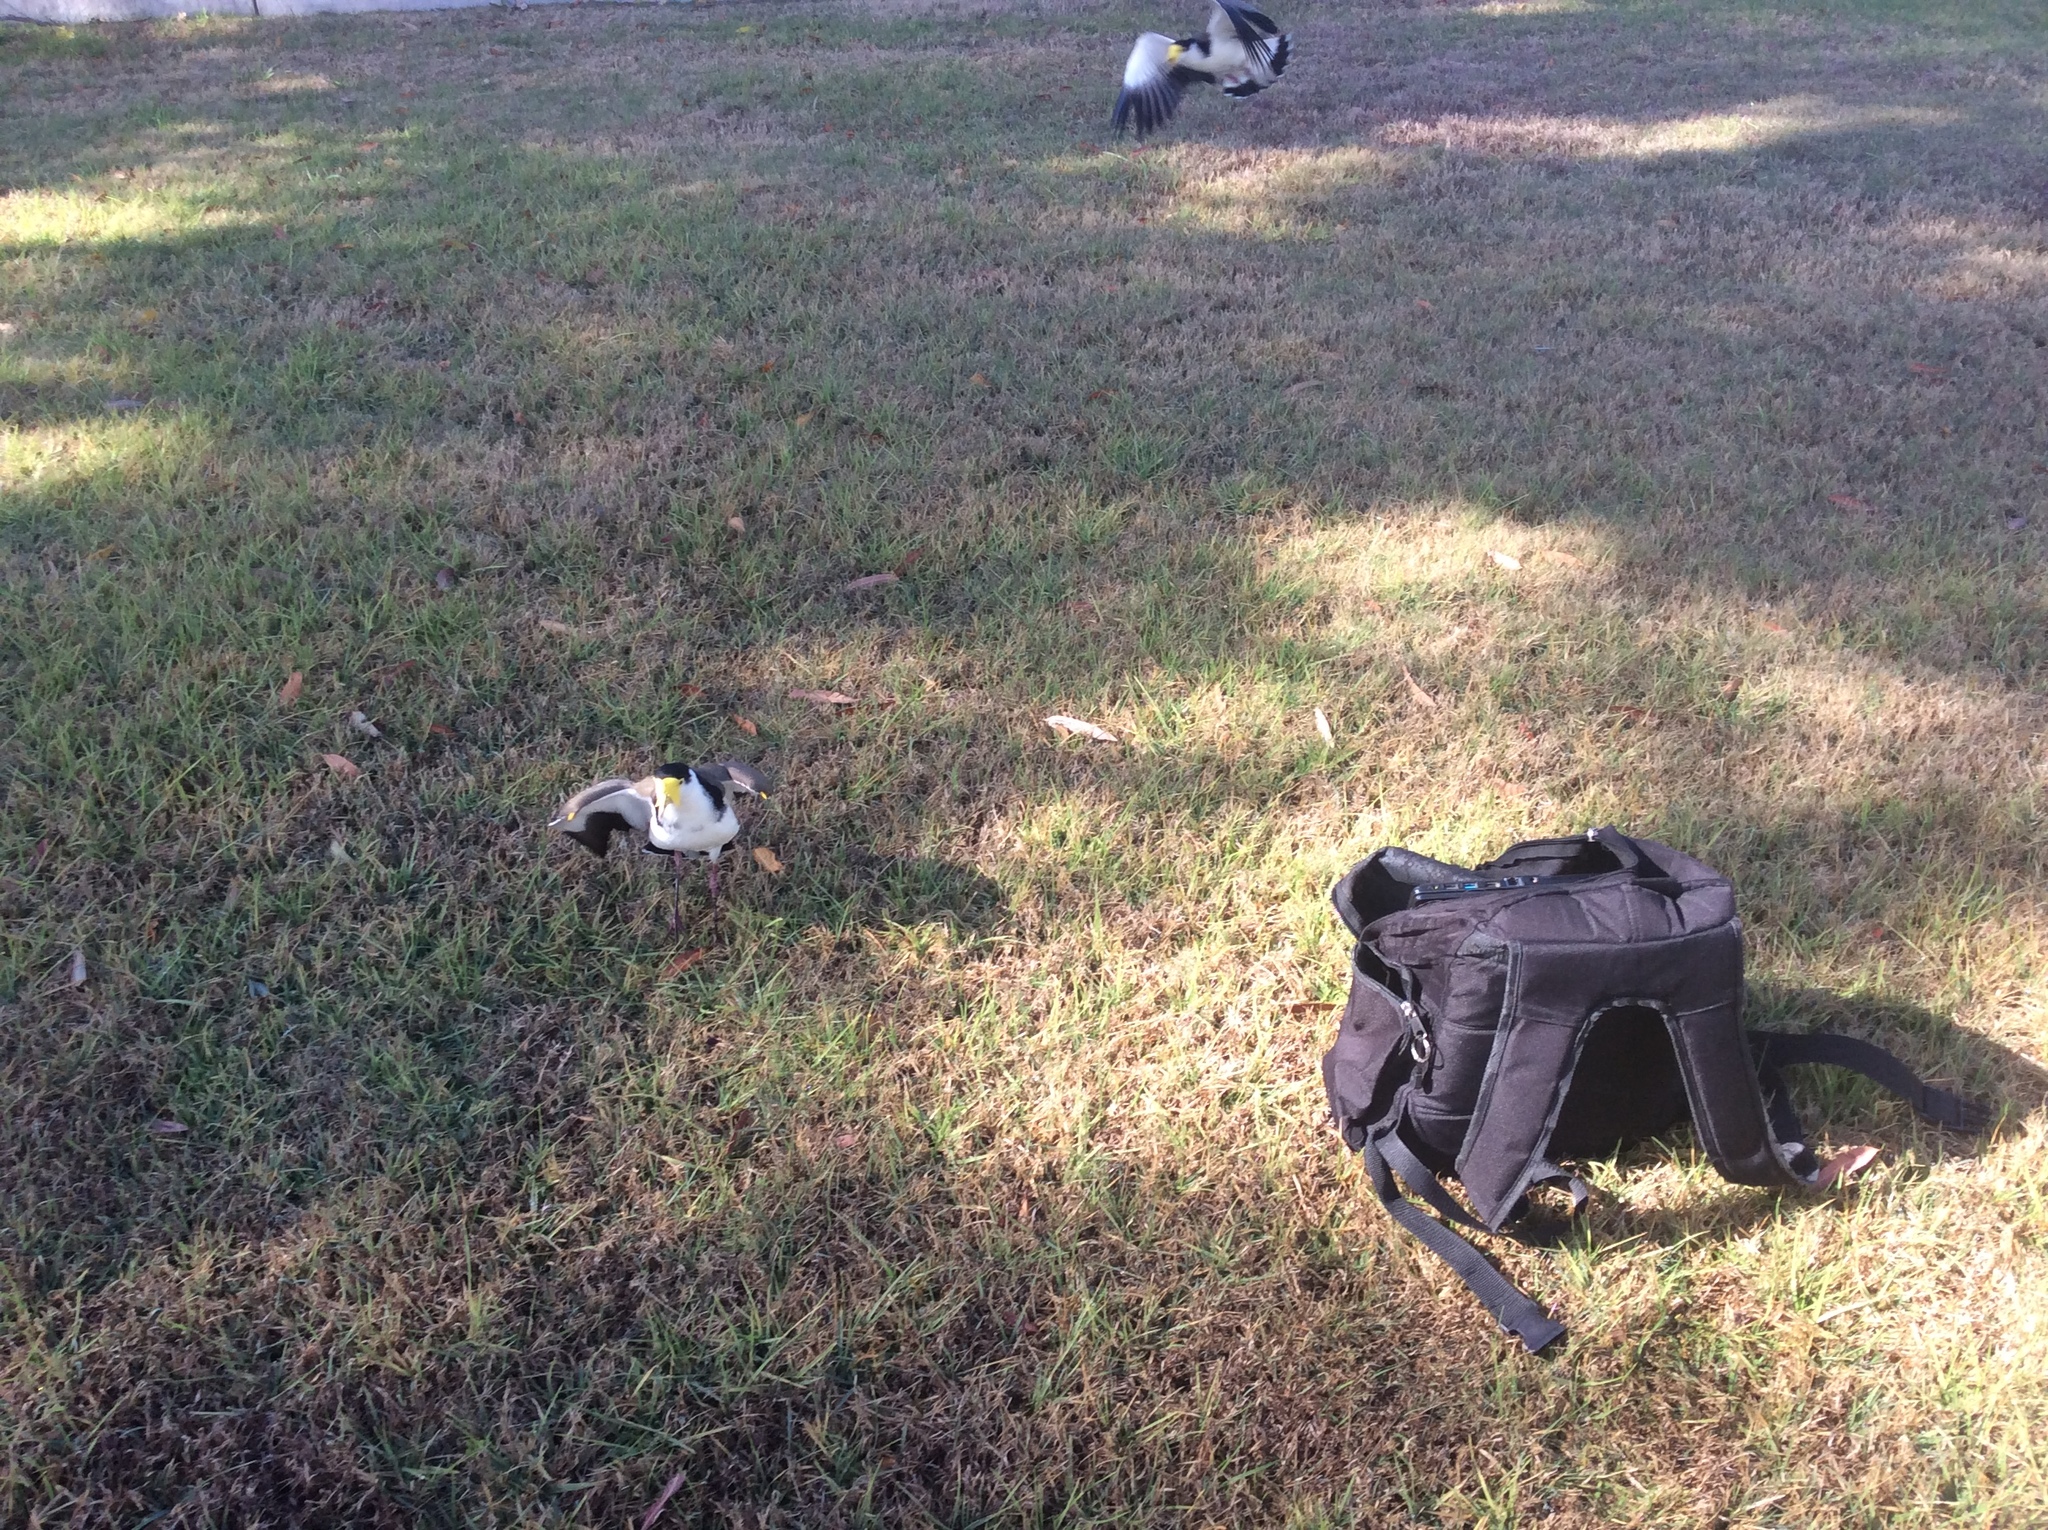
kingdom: Animalia
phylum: Chordata
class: Aves
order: Charadriiformes
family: Charadriidae
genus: Vanellus
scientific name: Vanellus miles
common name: Masked lapwing
